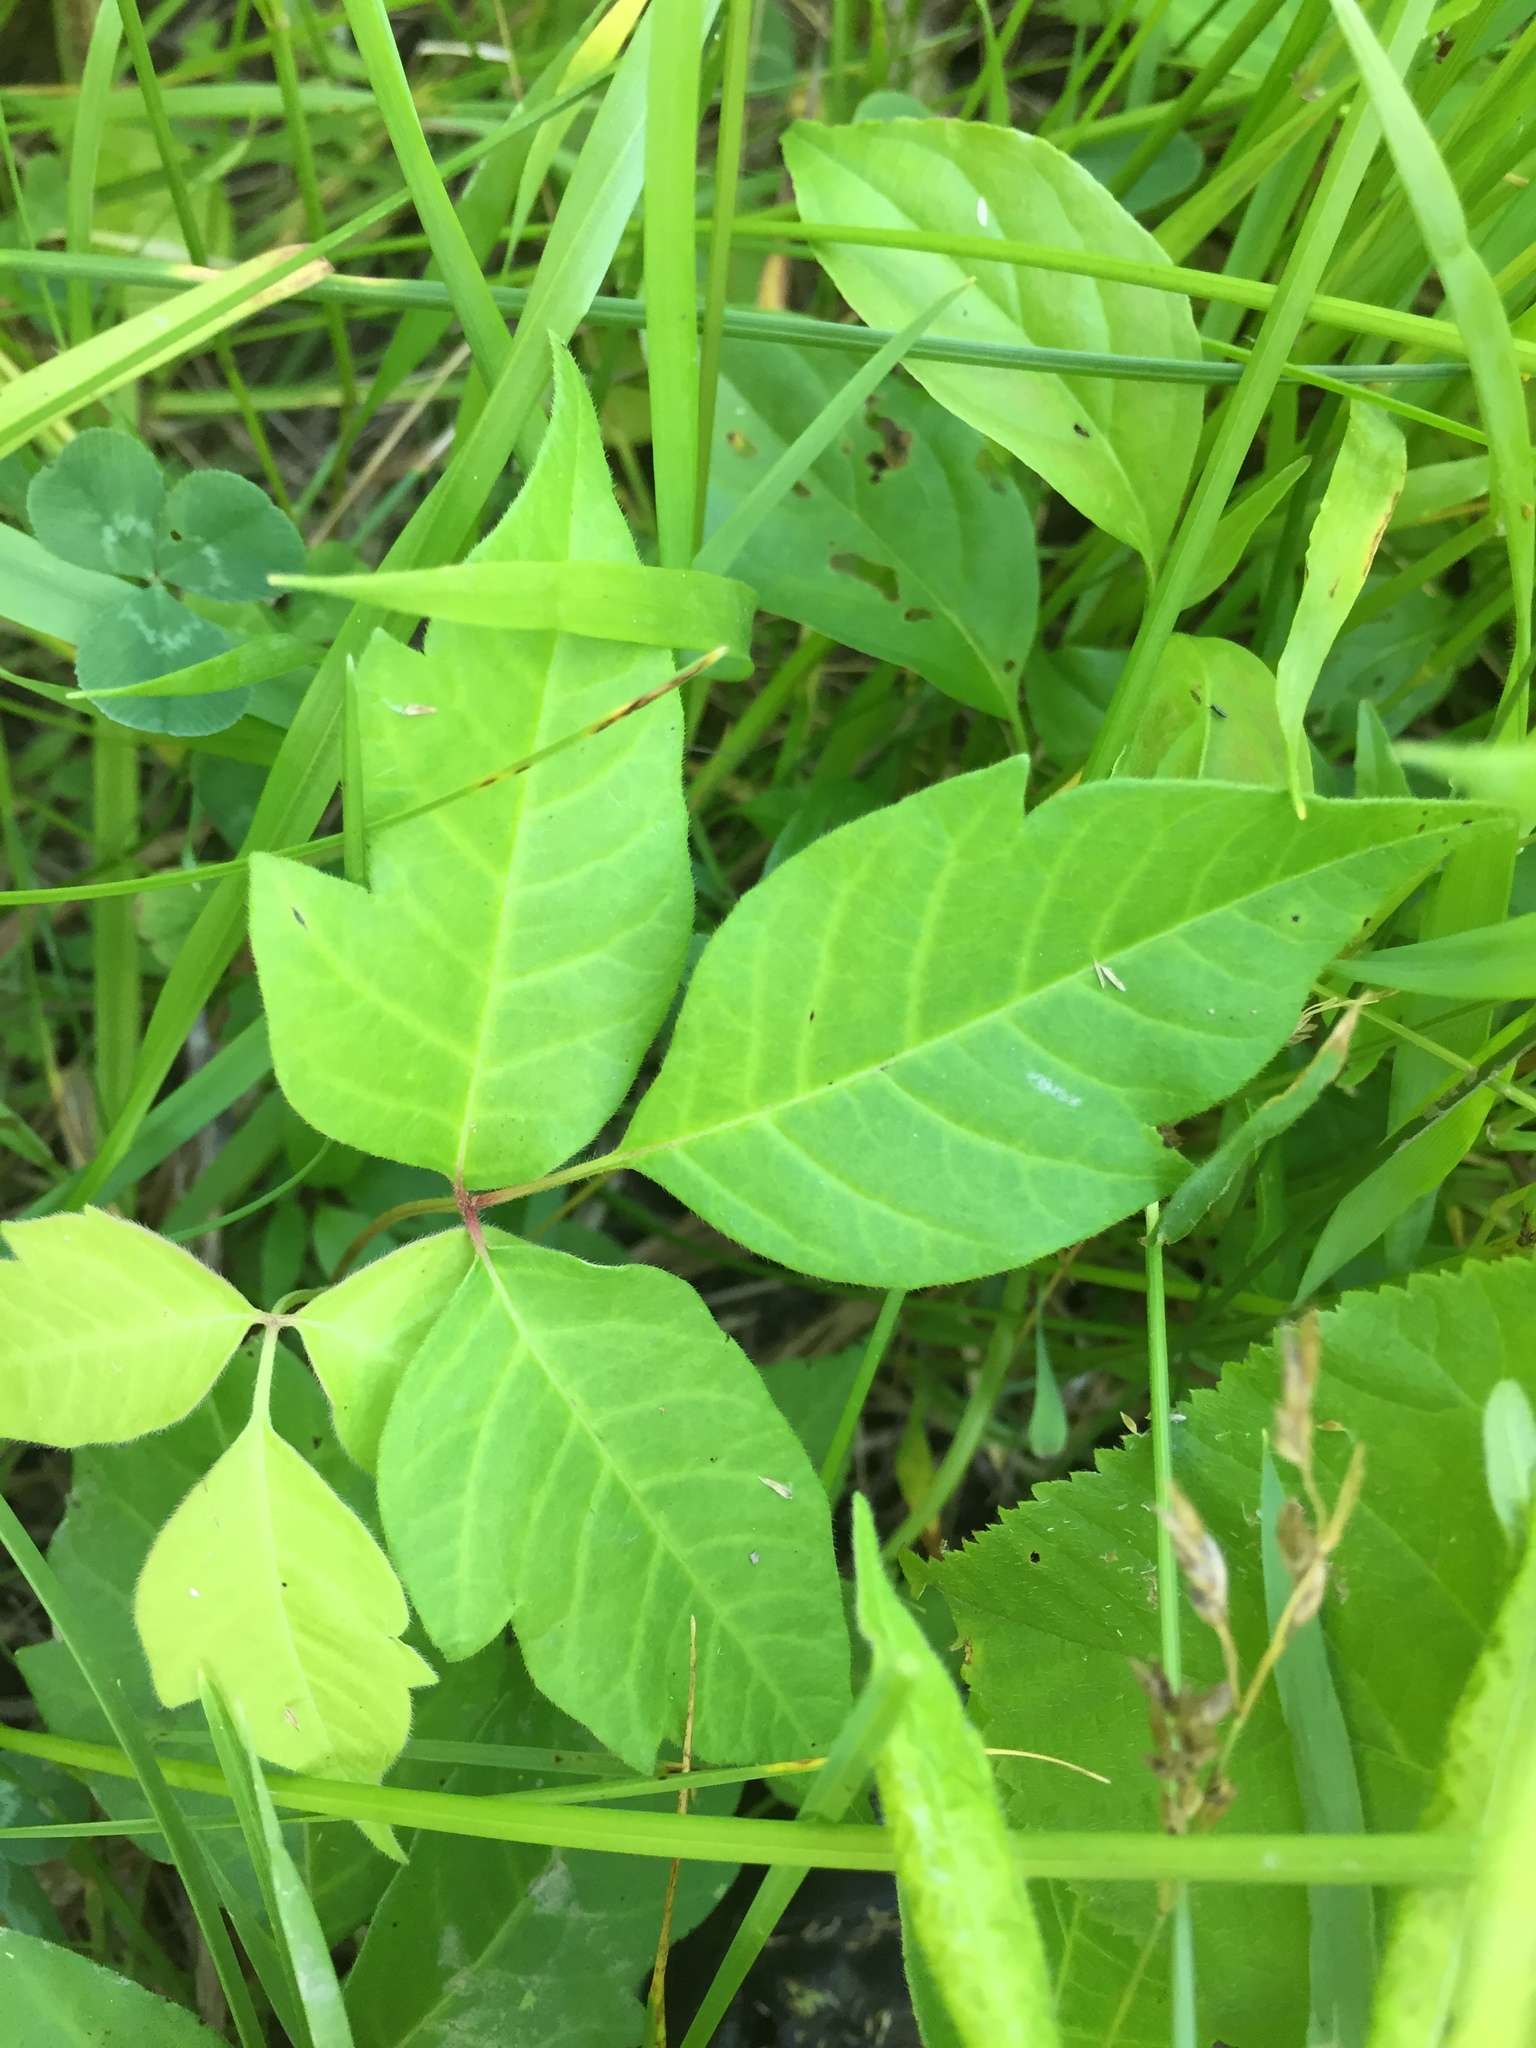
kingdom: Plantae
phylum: Tracheophyta
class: Magnoliopsida
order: Sapindales
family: Anacardiaceae
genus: Toxicodendron
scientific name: Toxicodendron radicans
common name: Poison ivy
